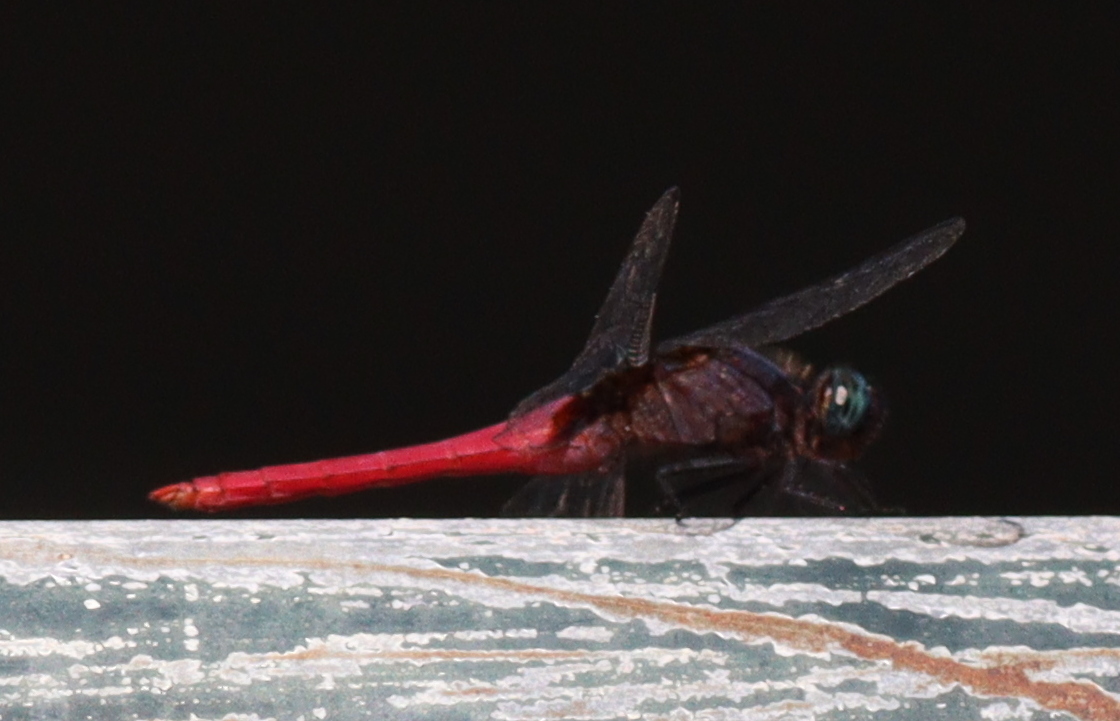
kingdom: Animalia
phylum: Arthropoda
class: Insecta
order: Odonata
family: Libellulidae
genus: Orthetrum
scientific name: Orthetrum pruinosum
